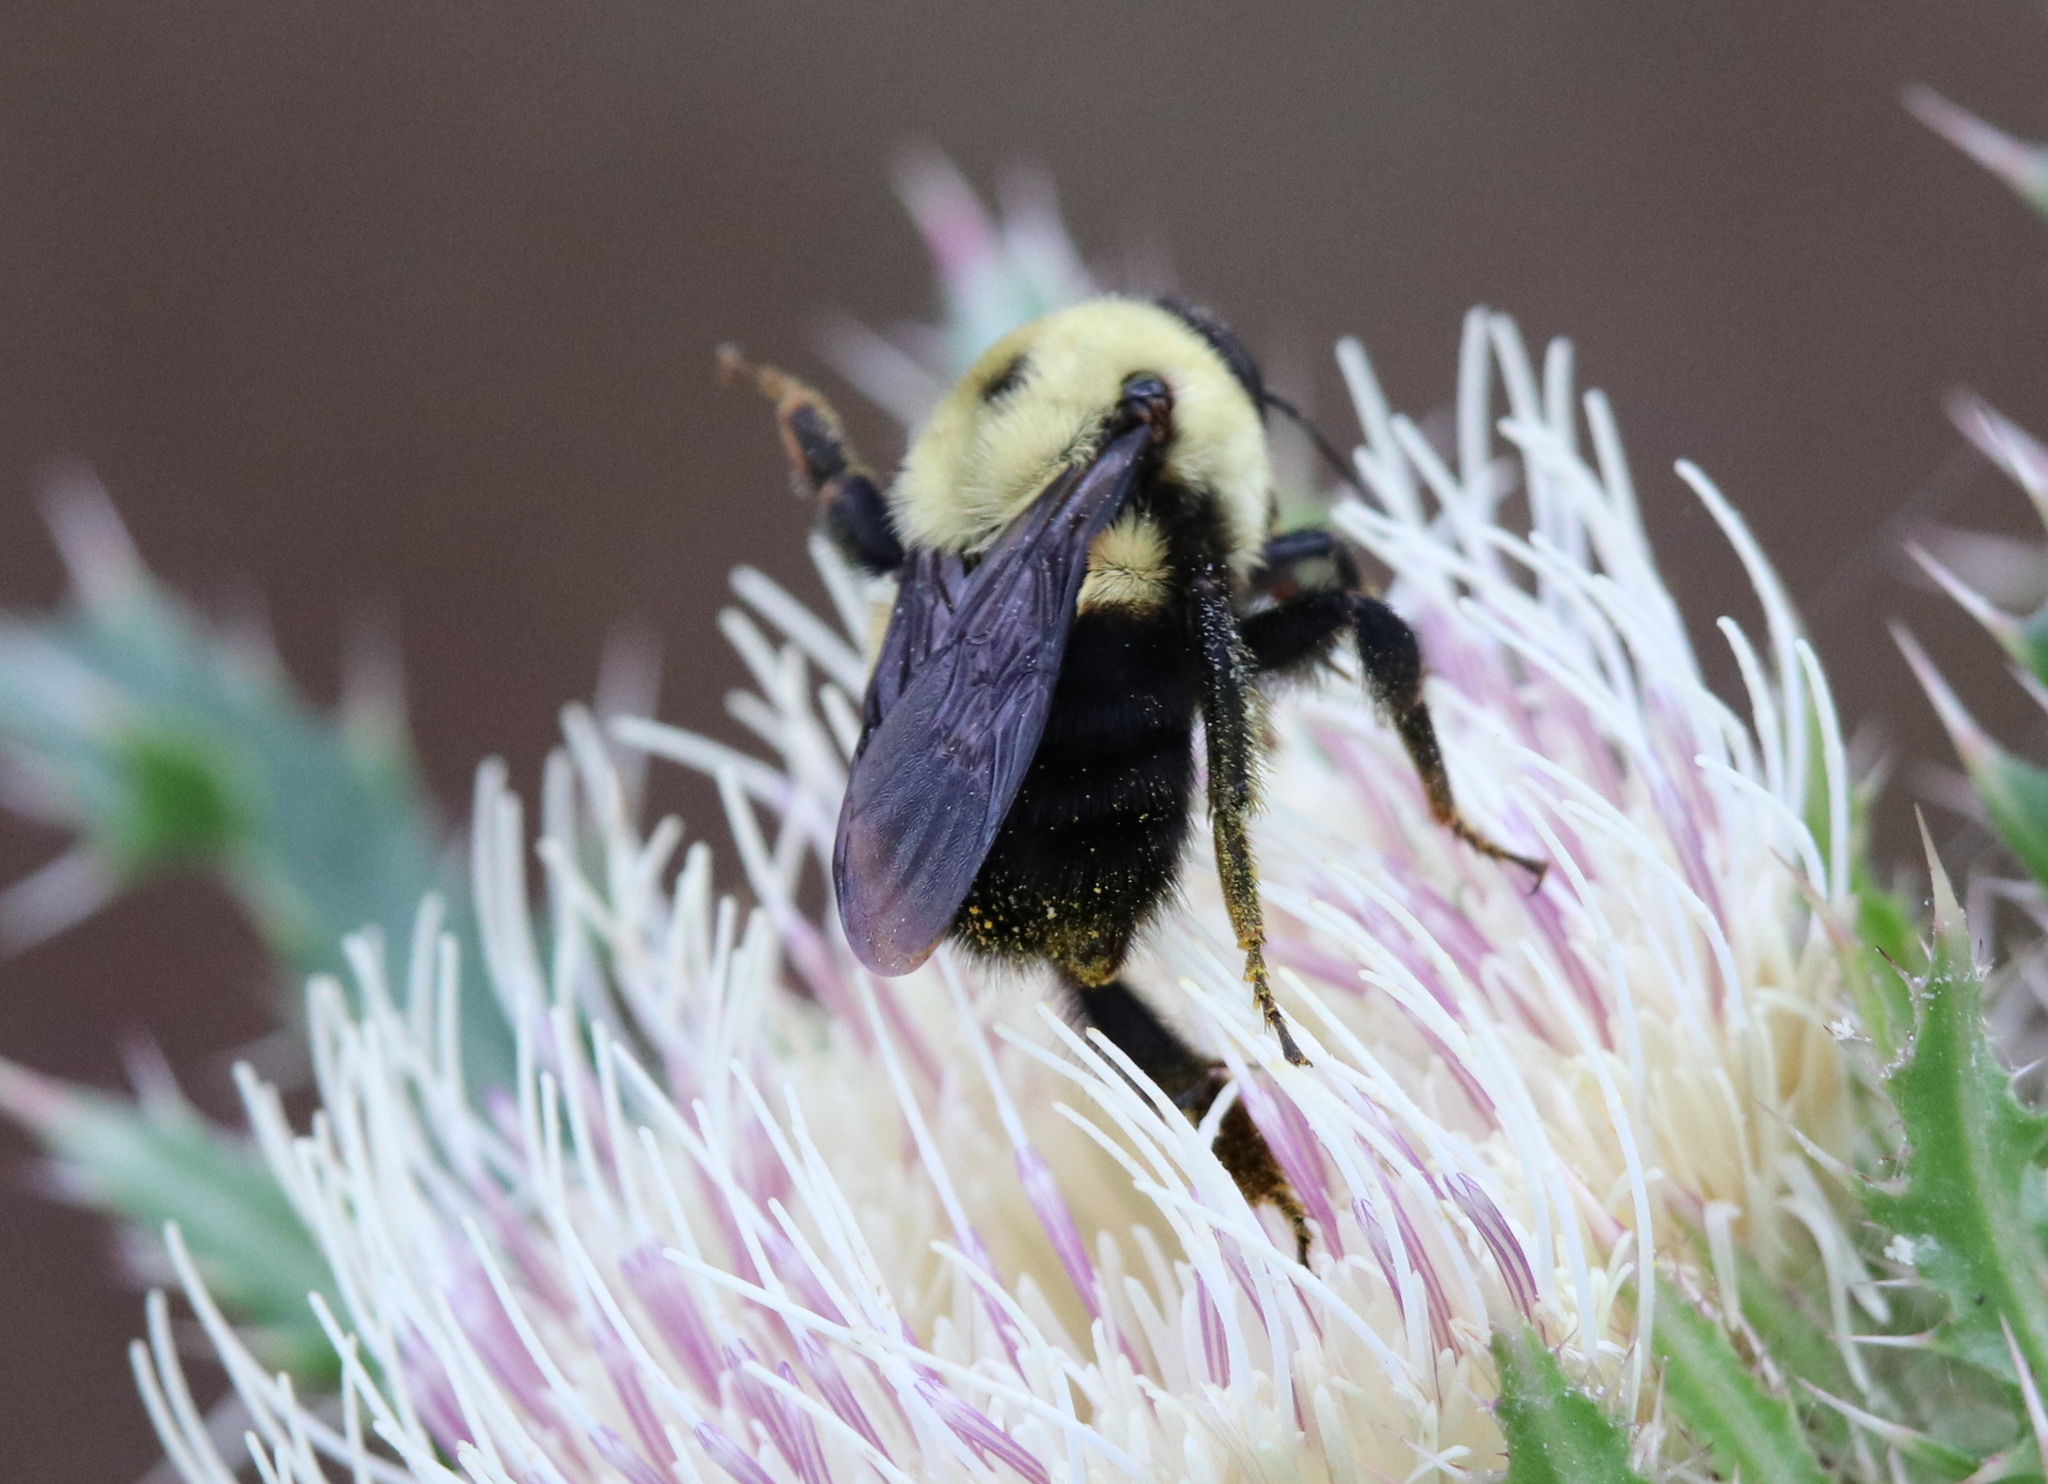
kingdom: Animalia
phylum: Arthropoda
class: Insecta
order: Hymenoptera
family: Apidae
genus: Bombus
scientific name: Bombus griseocollis
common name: Brown-belted bumble bee
